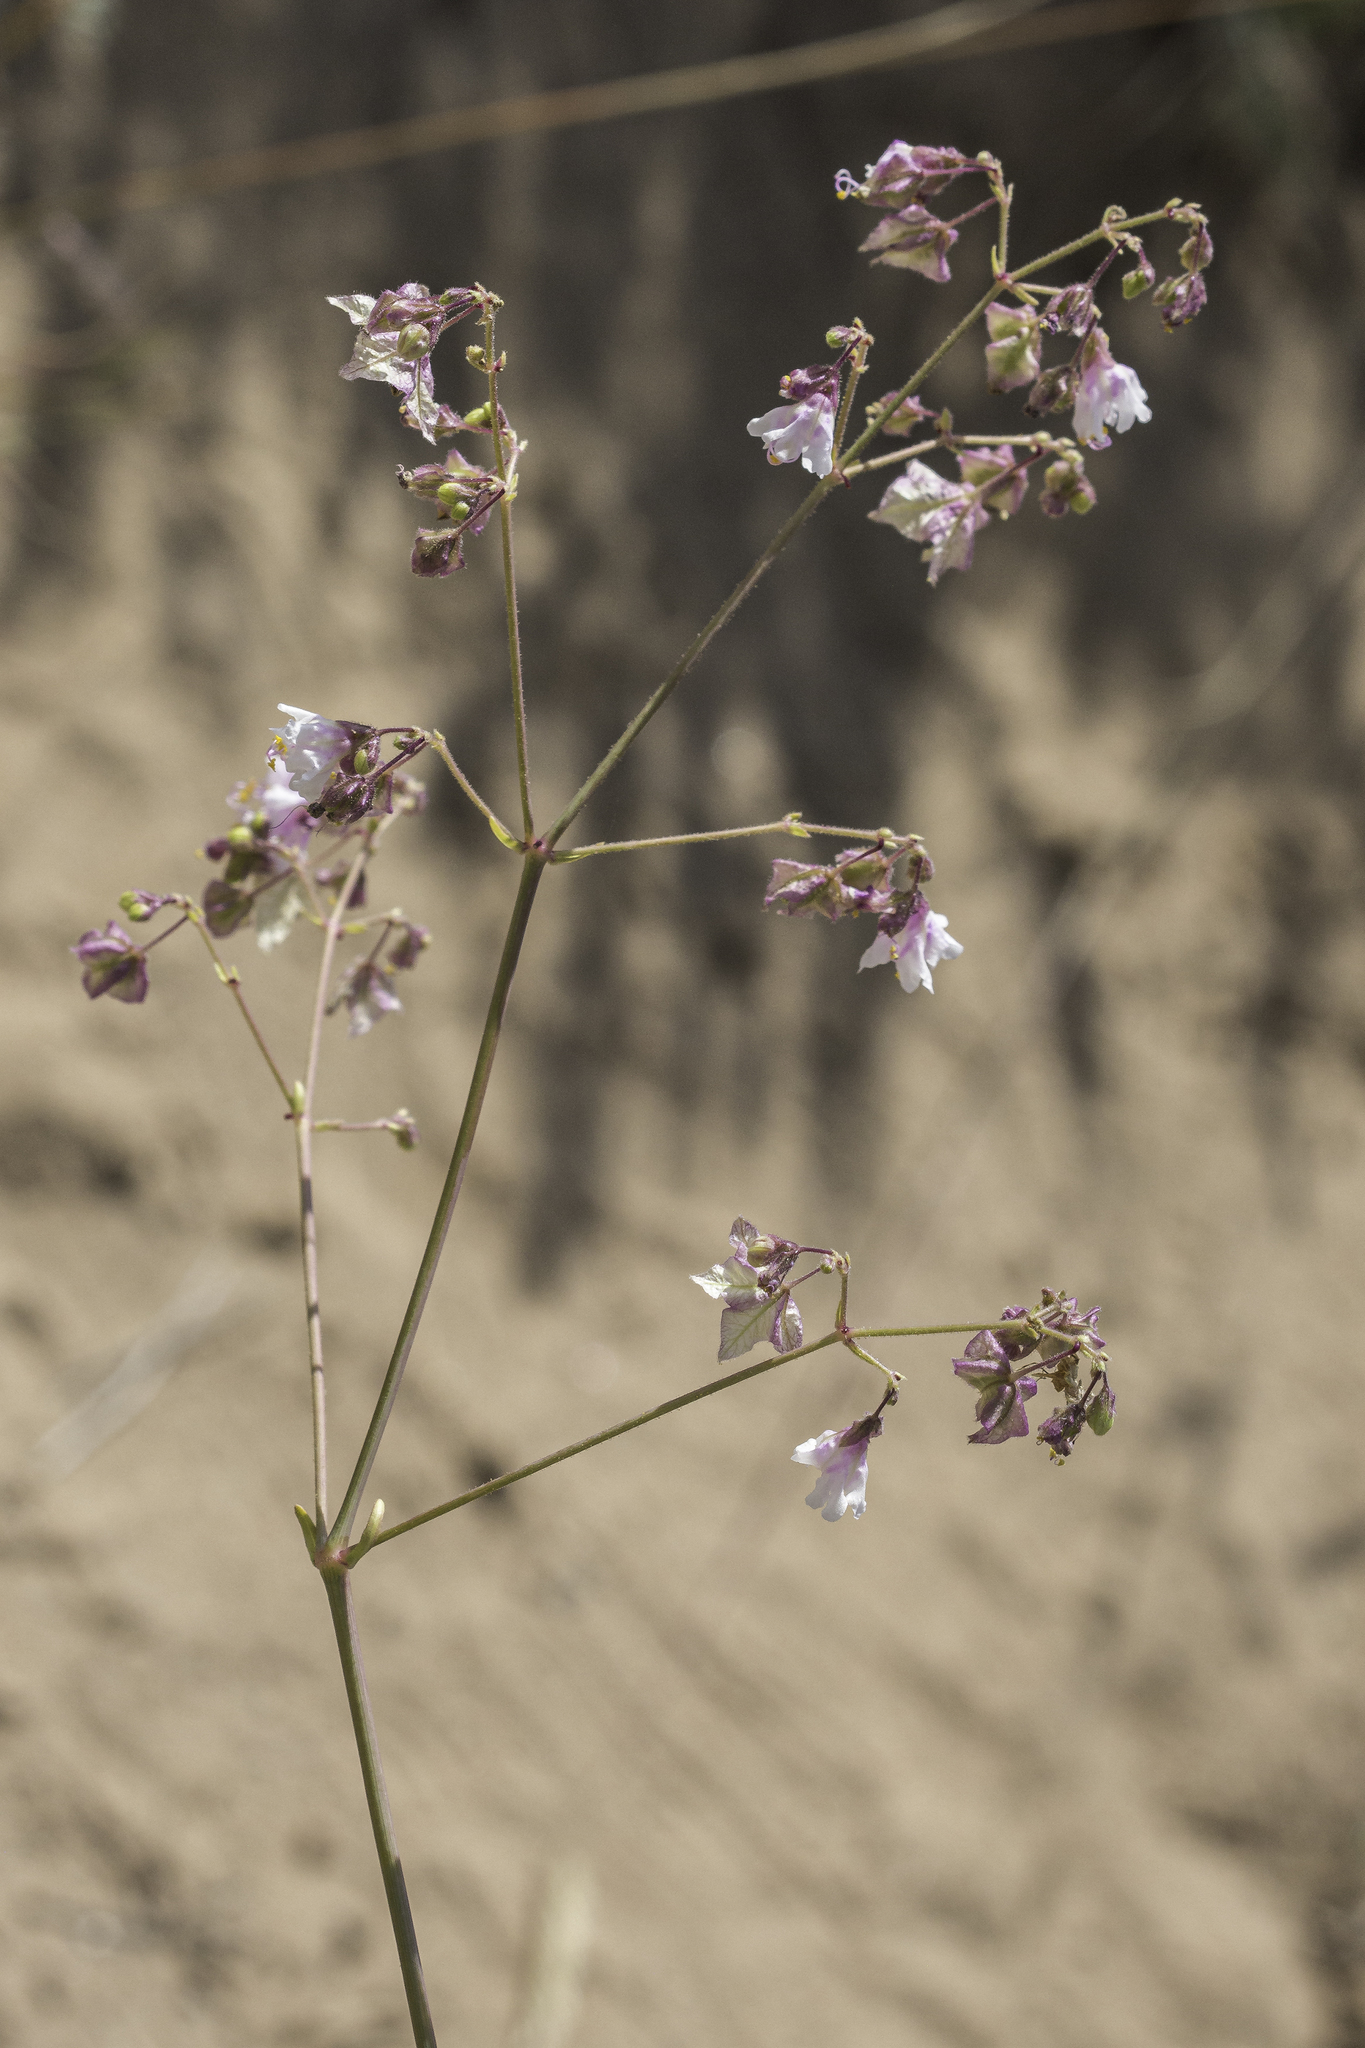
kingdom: Plantae
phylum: Tracheophyta
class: Magnoliopsida
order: Caryophyllales
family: Nyctaginaceae
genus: Mirabilis
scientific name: Mirabilis linearis
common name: Linear-leaved four-o'clock
